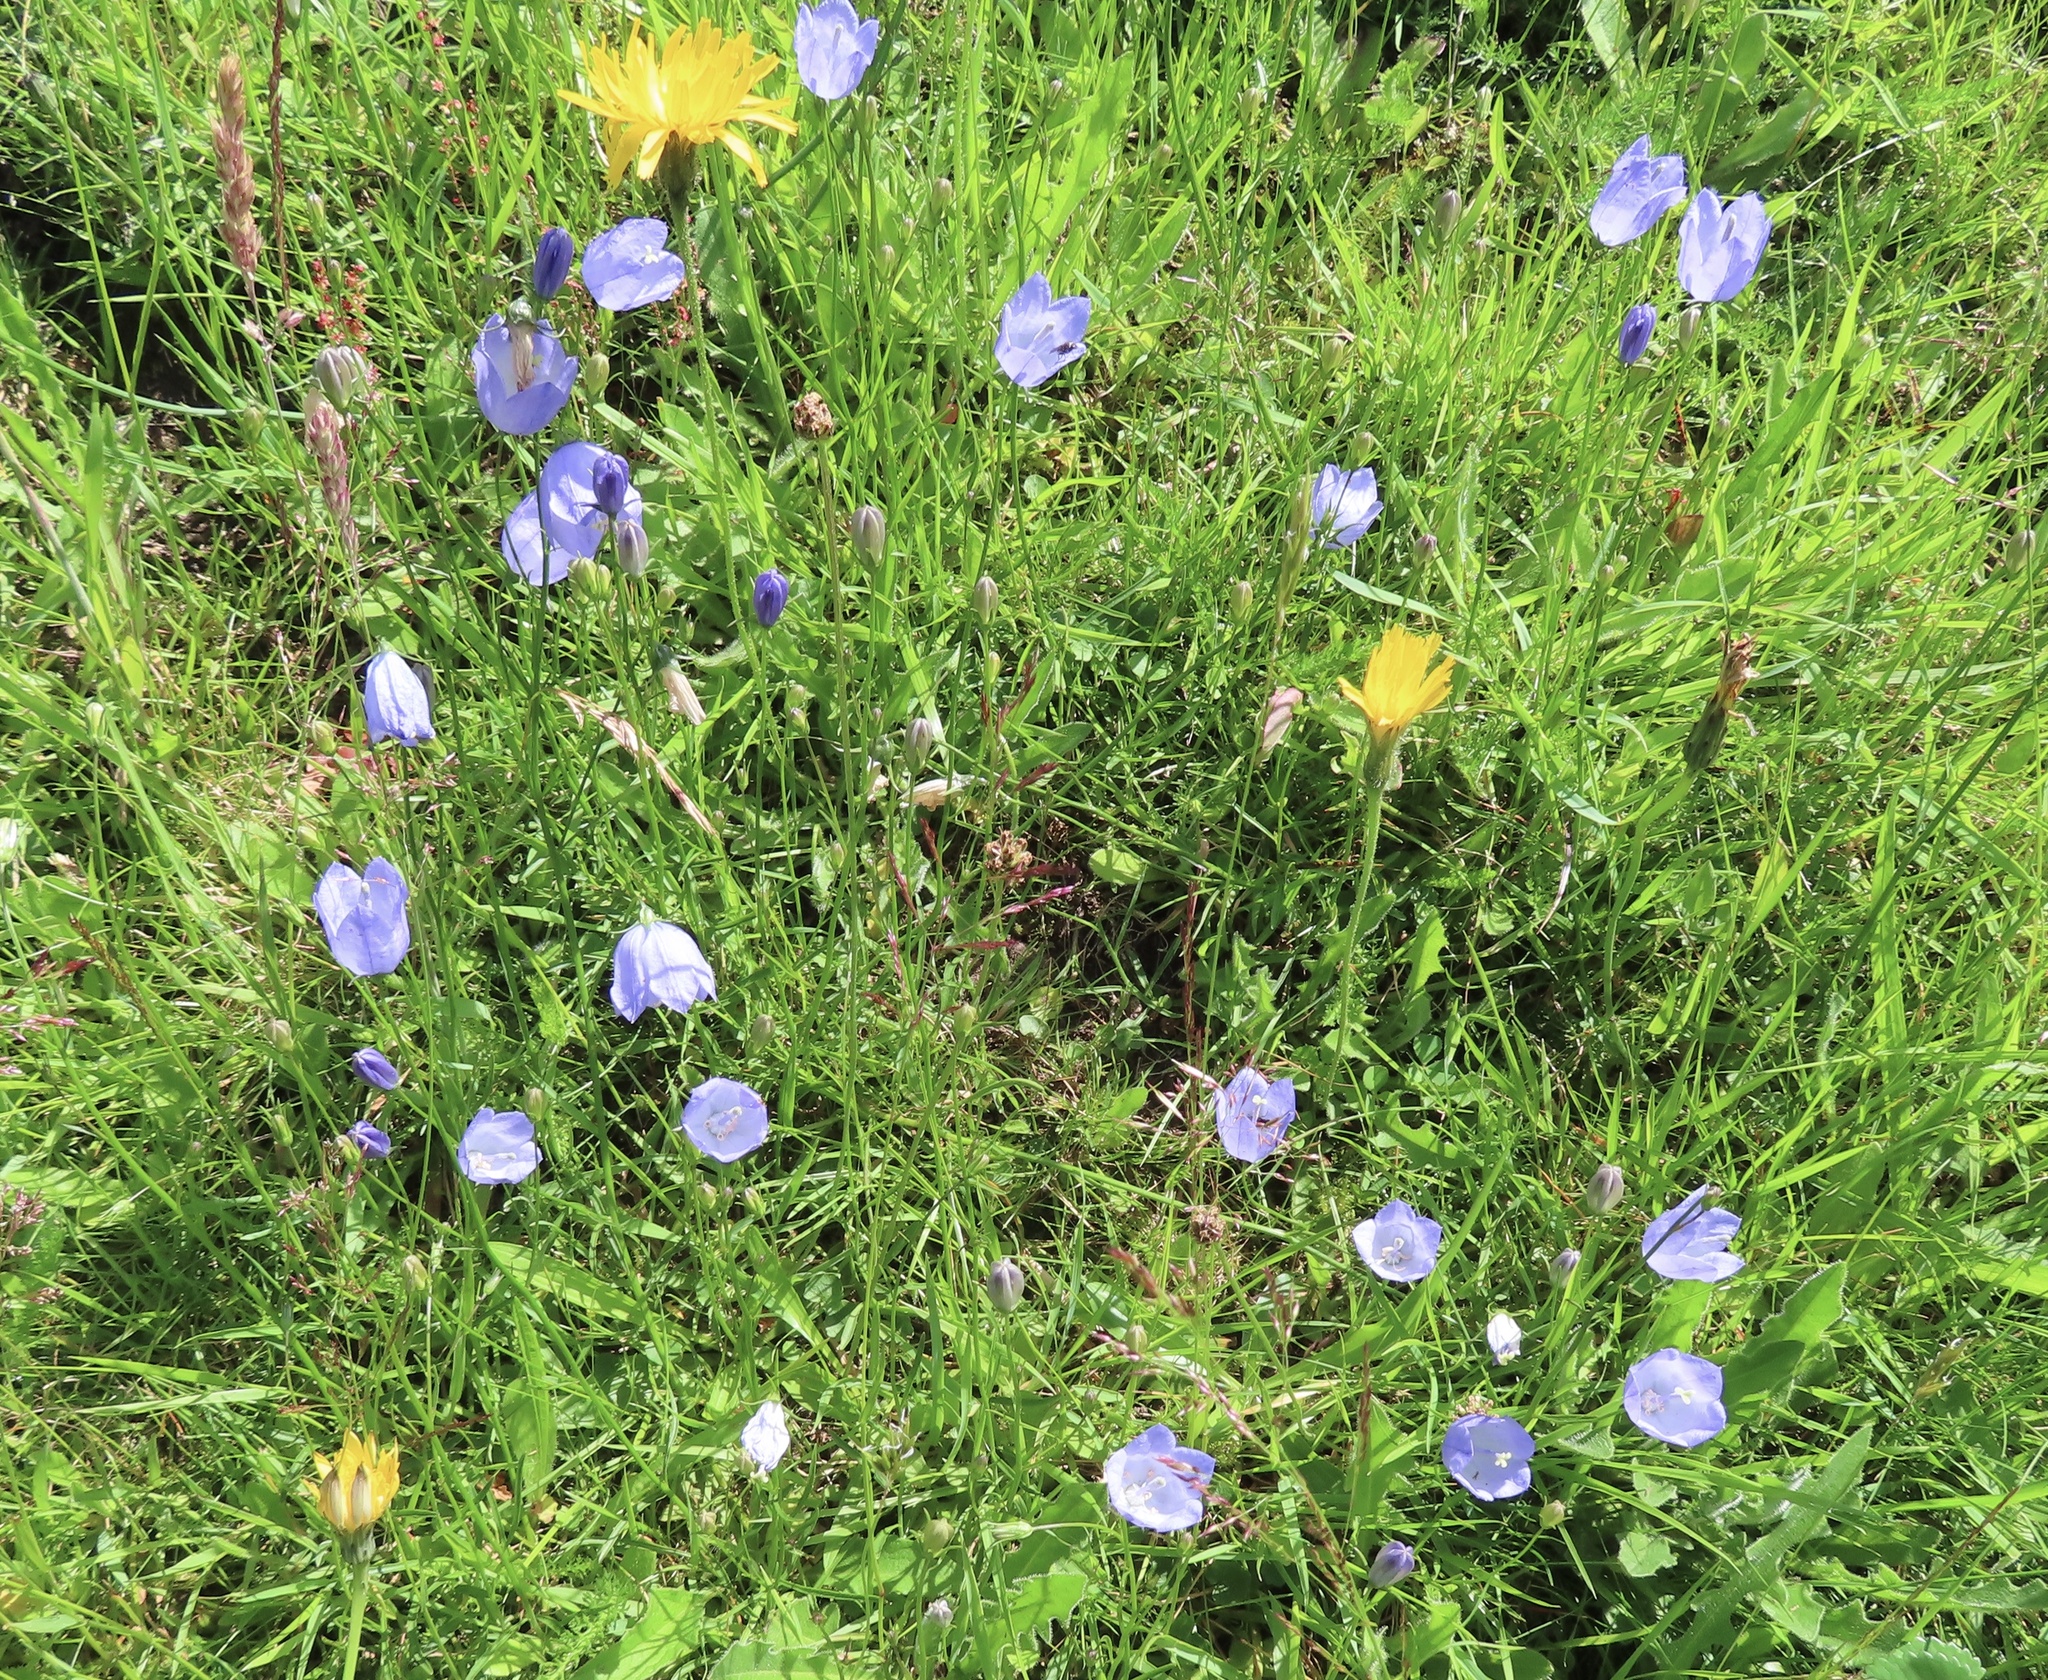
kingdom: Plantae
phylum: Tracheophyta
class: Magnoliopsida
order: Asterales
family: Campanulaceae
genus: Campanula
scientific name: Campanula rotundifolia
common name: Harebell
